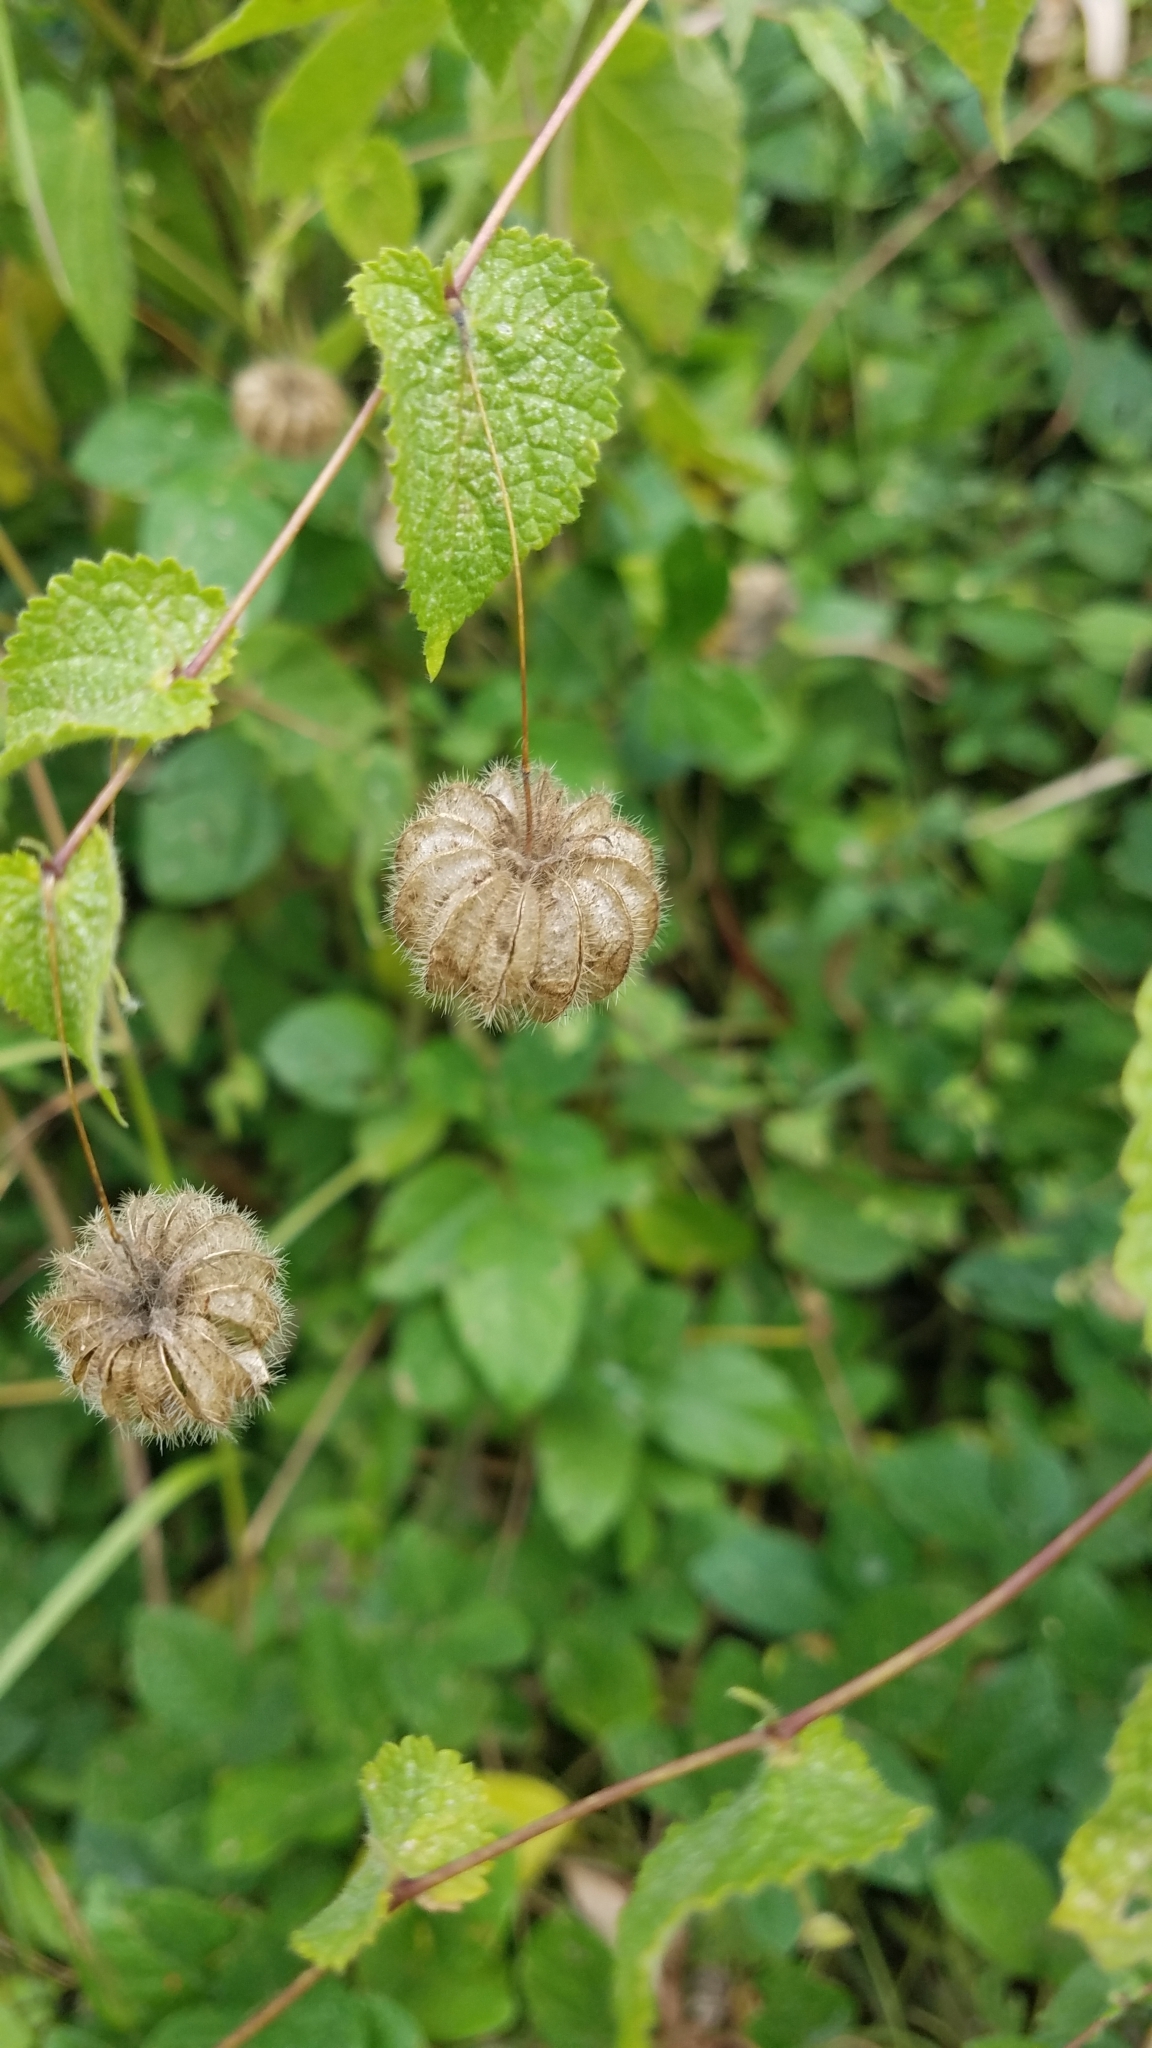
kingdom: Plantae
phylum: Tracheophyta
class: Magnoliopsida
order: Malvales
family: Malvaceae
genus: Herissantia
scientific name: Herissantia crispa
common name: Bladdermallow
